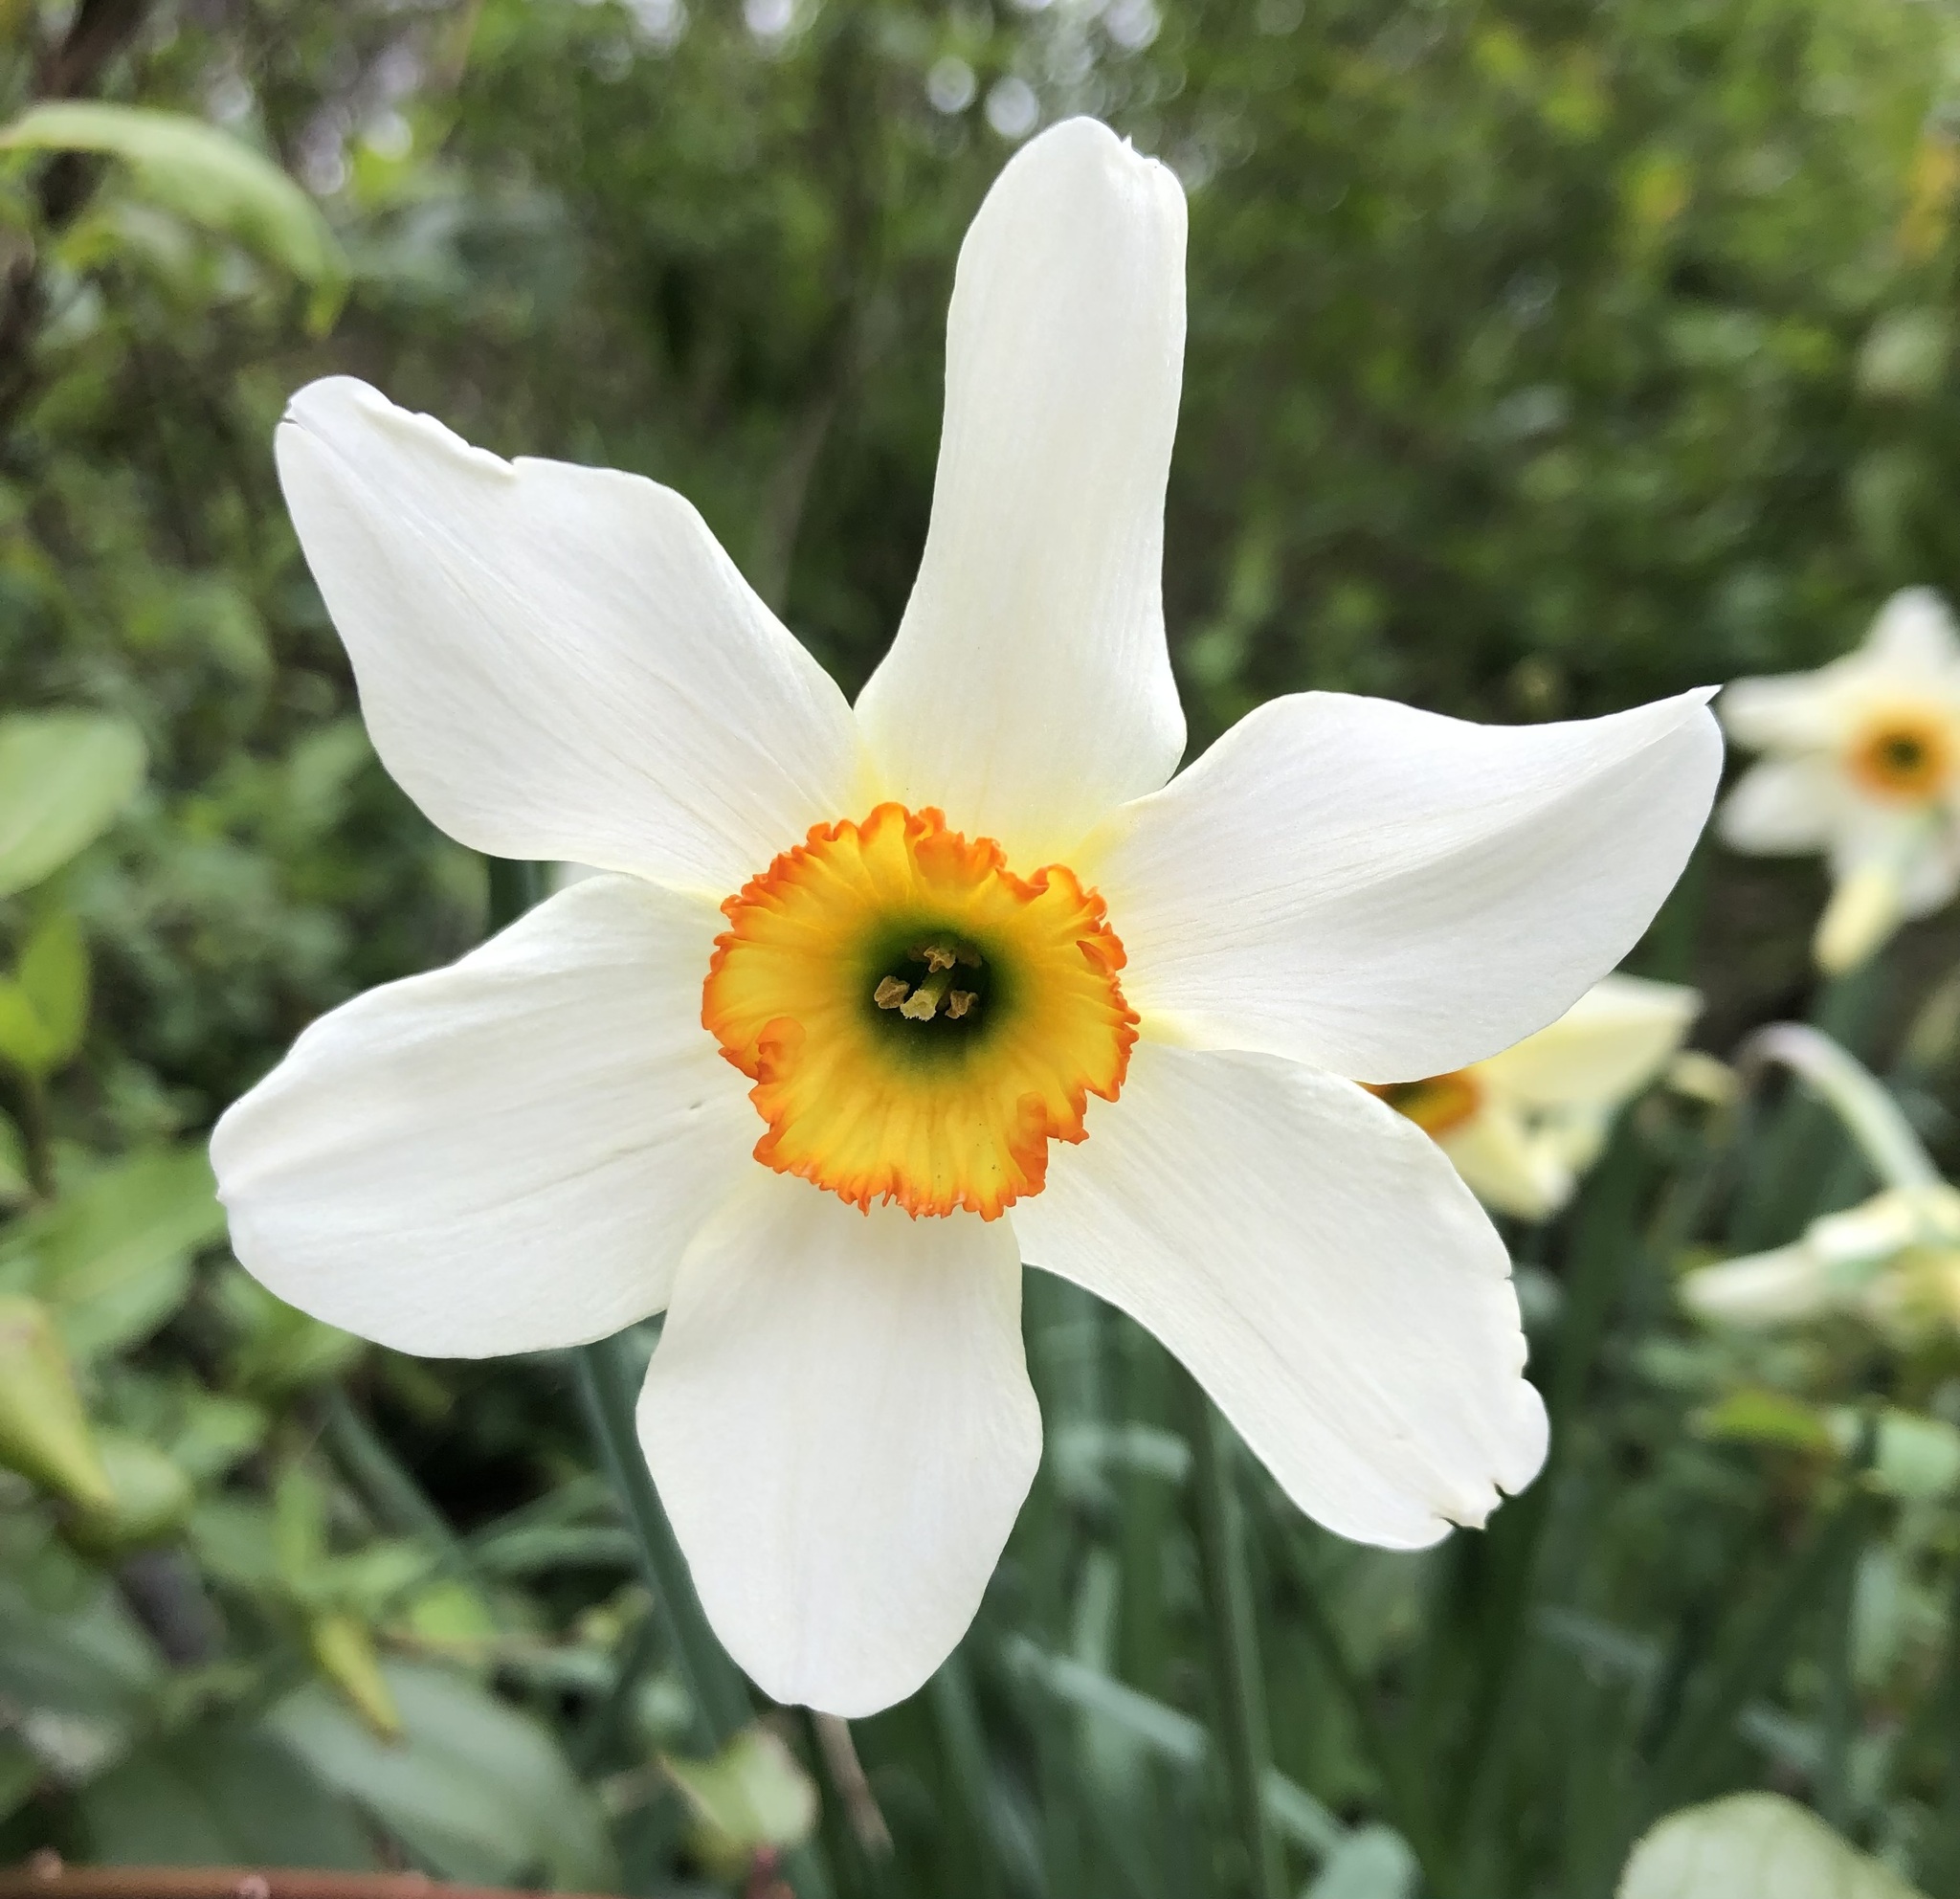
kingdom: Plantae
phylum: Tracheophyta
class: Liliopsida
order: Asparagales
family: Amaryllidaceae
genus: Narcissus
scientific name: Narcissus poeticus
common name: Pheasant's-eye daffodil
